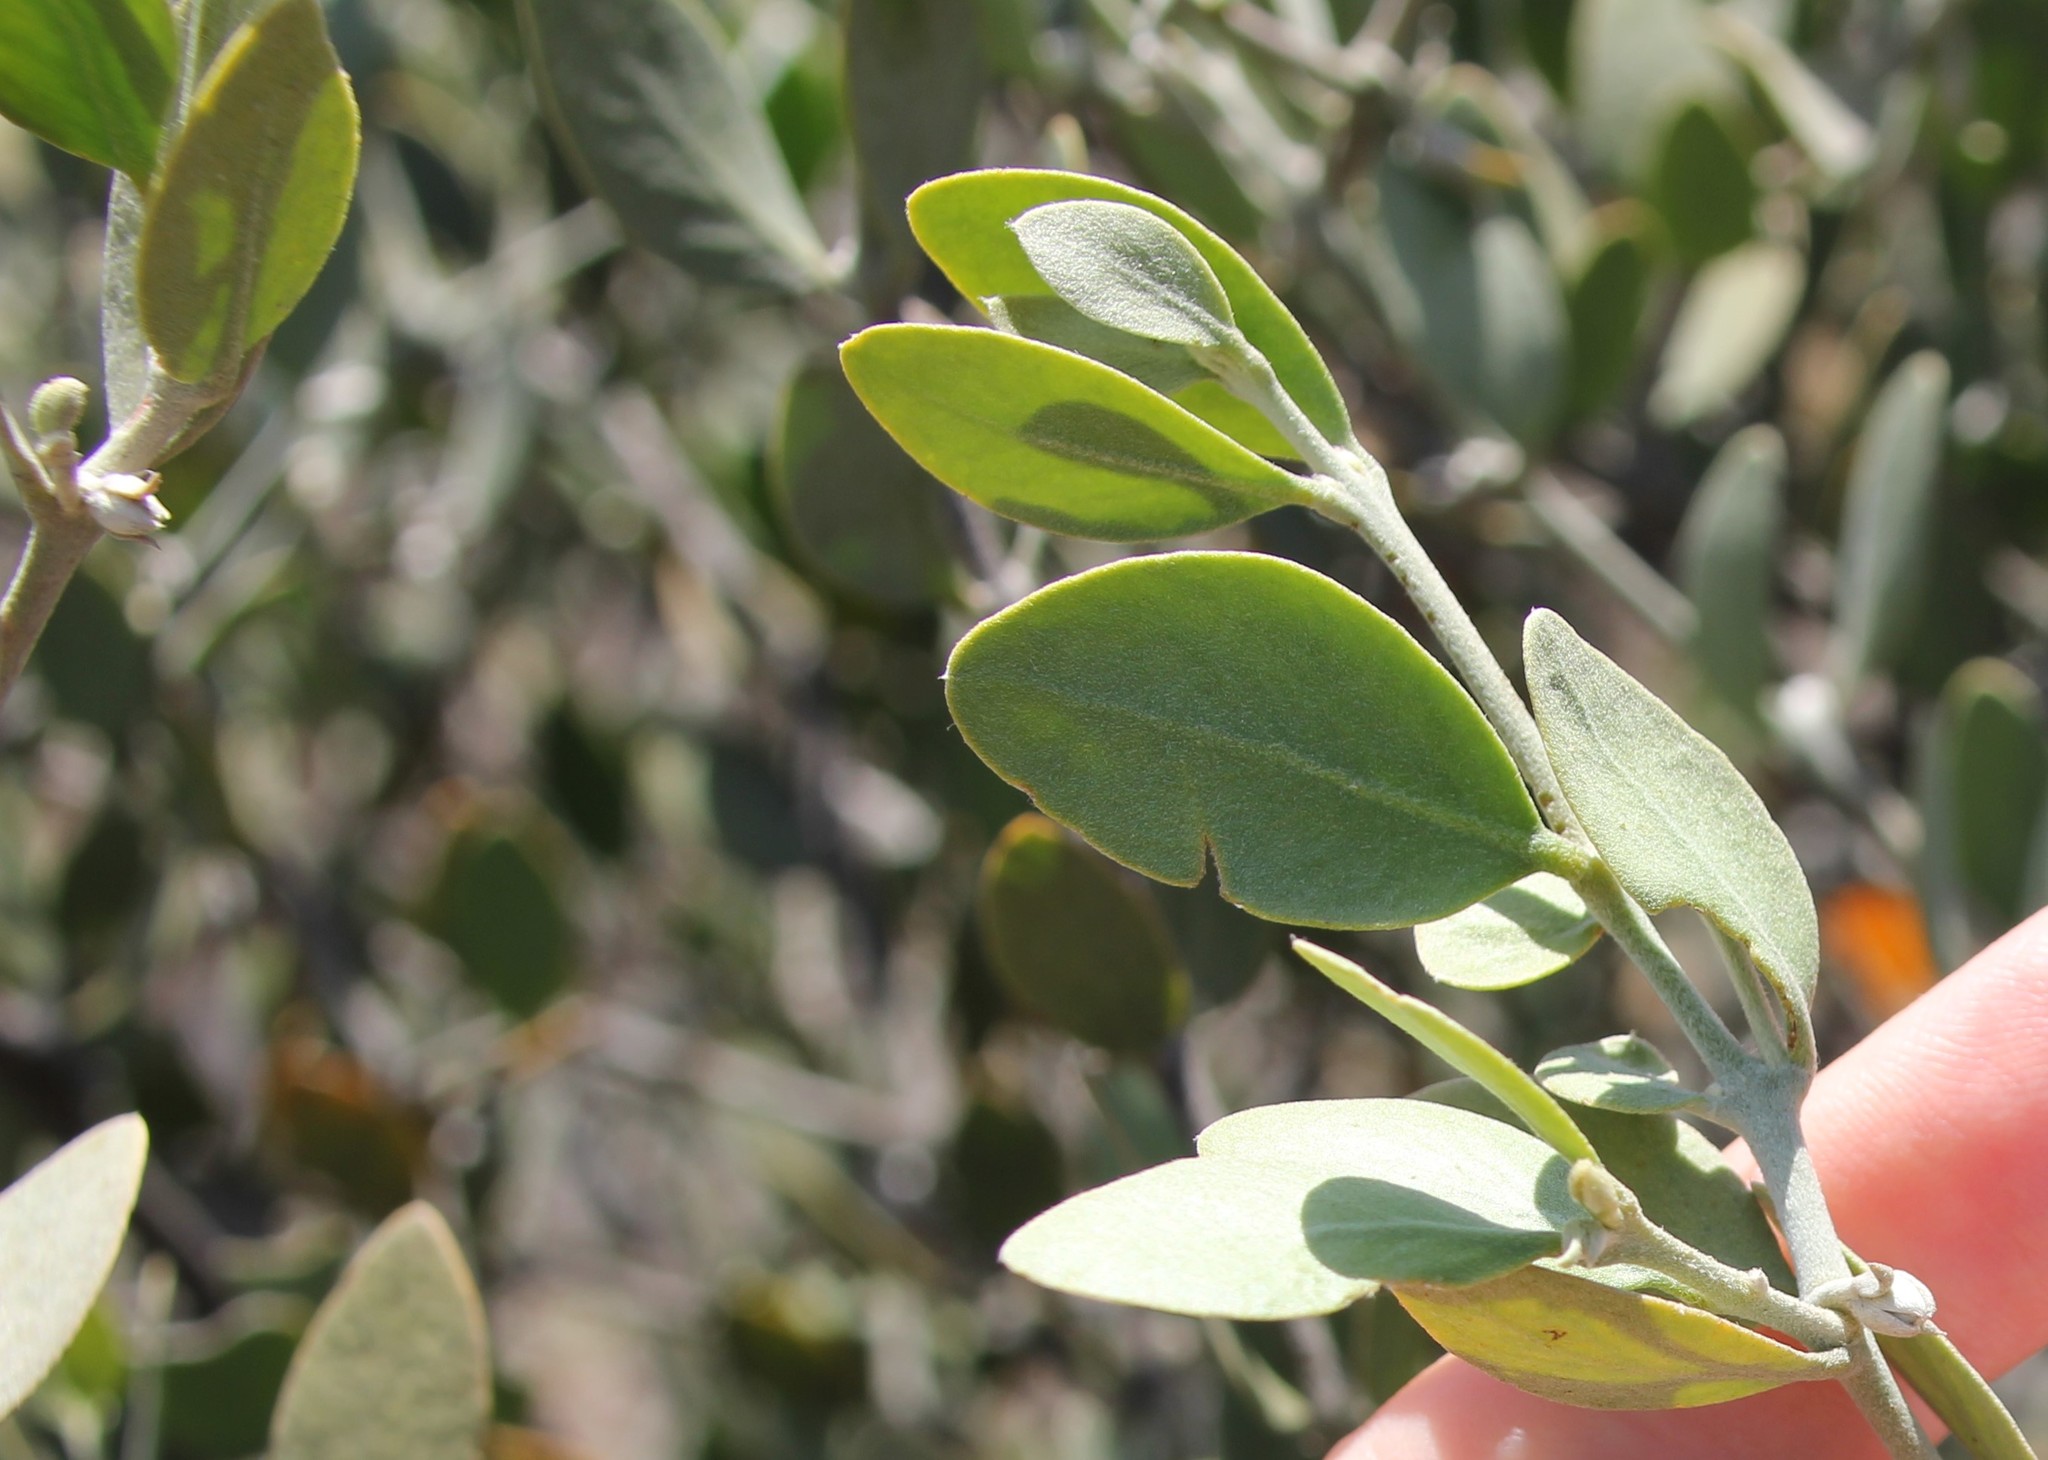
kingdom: Plantae
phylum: Tracheophyta
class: Magnoliopsida
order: Caryophyllales
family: Simmondsiaceae
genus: Simmondsia
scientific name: Simmondsia chinensis
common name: Jojoba
